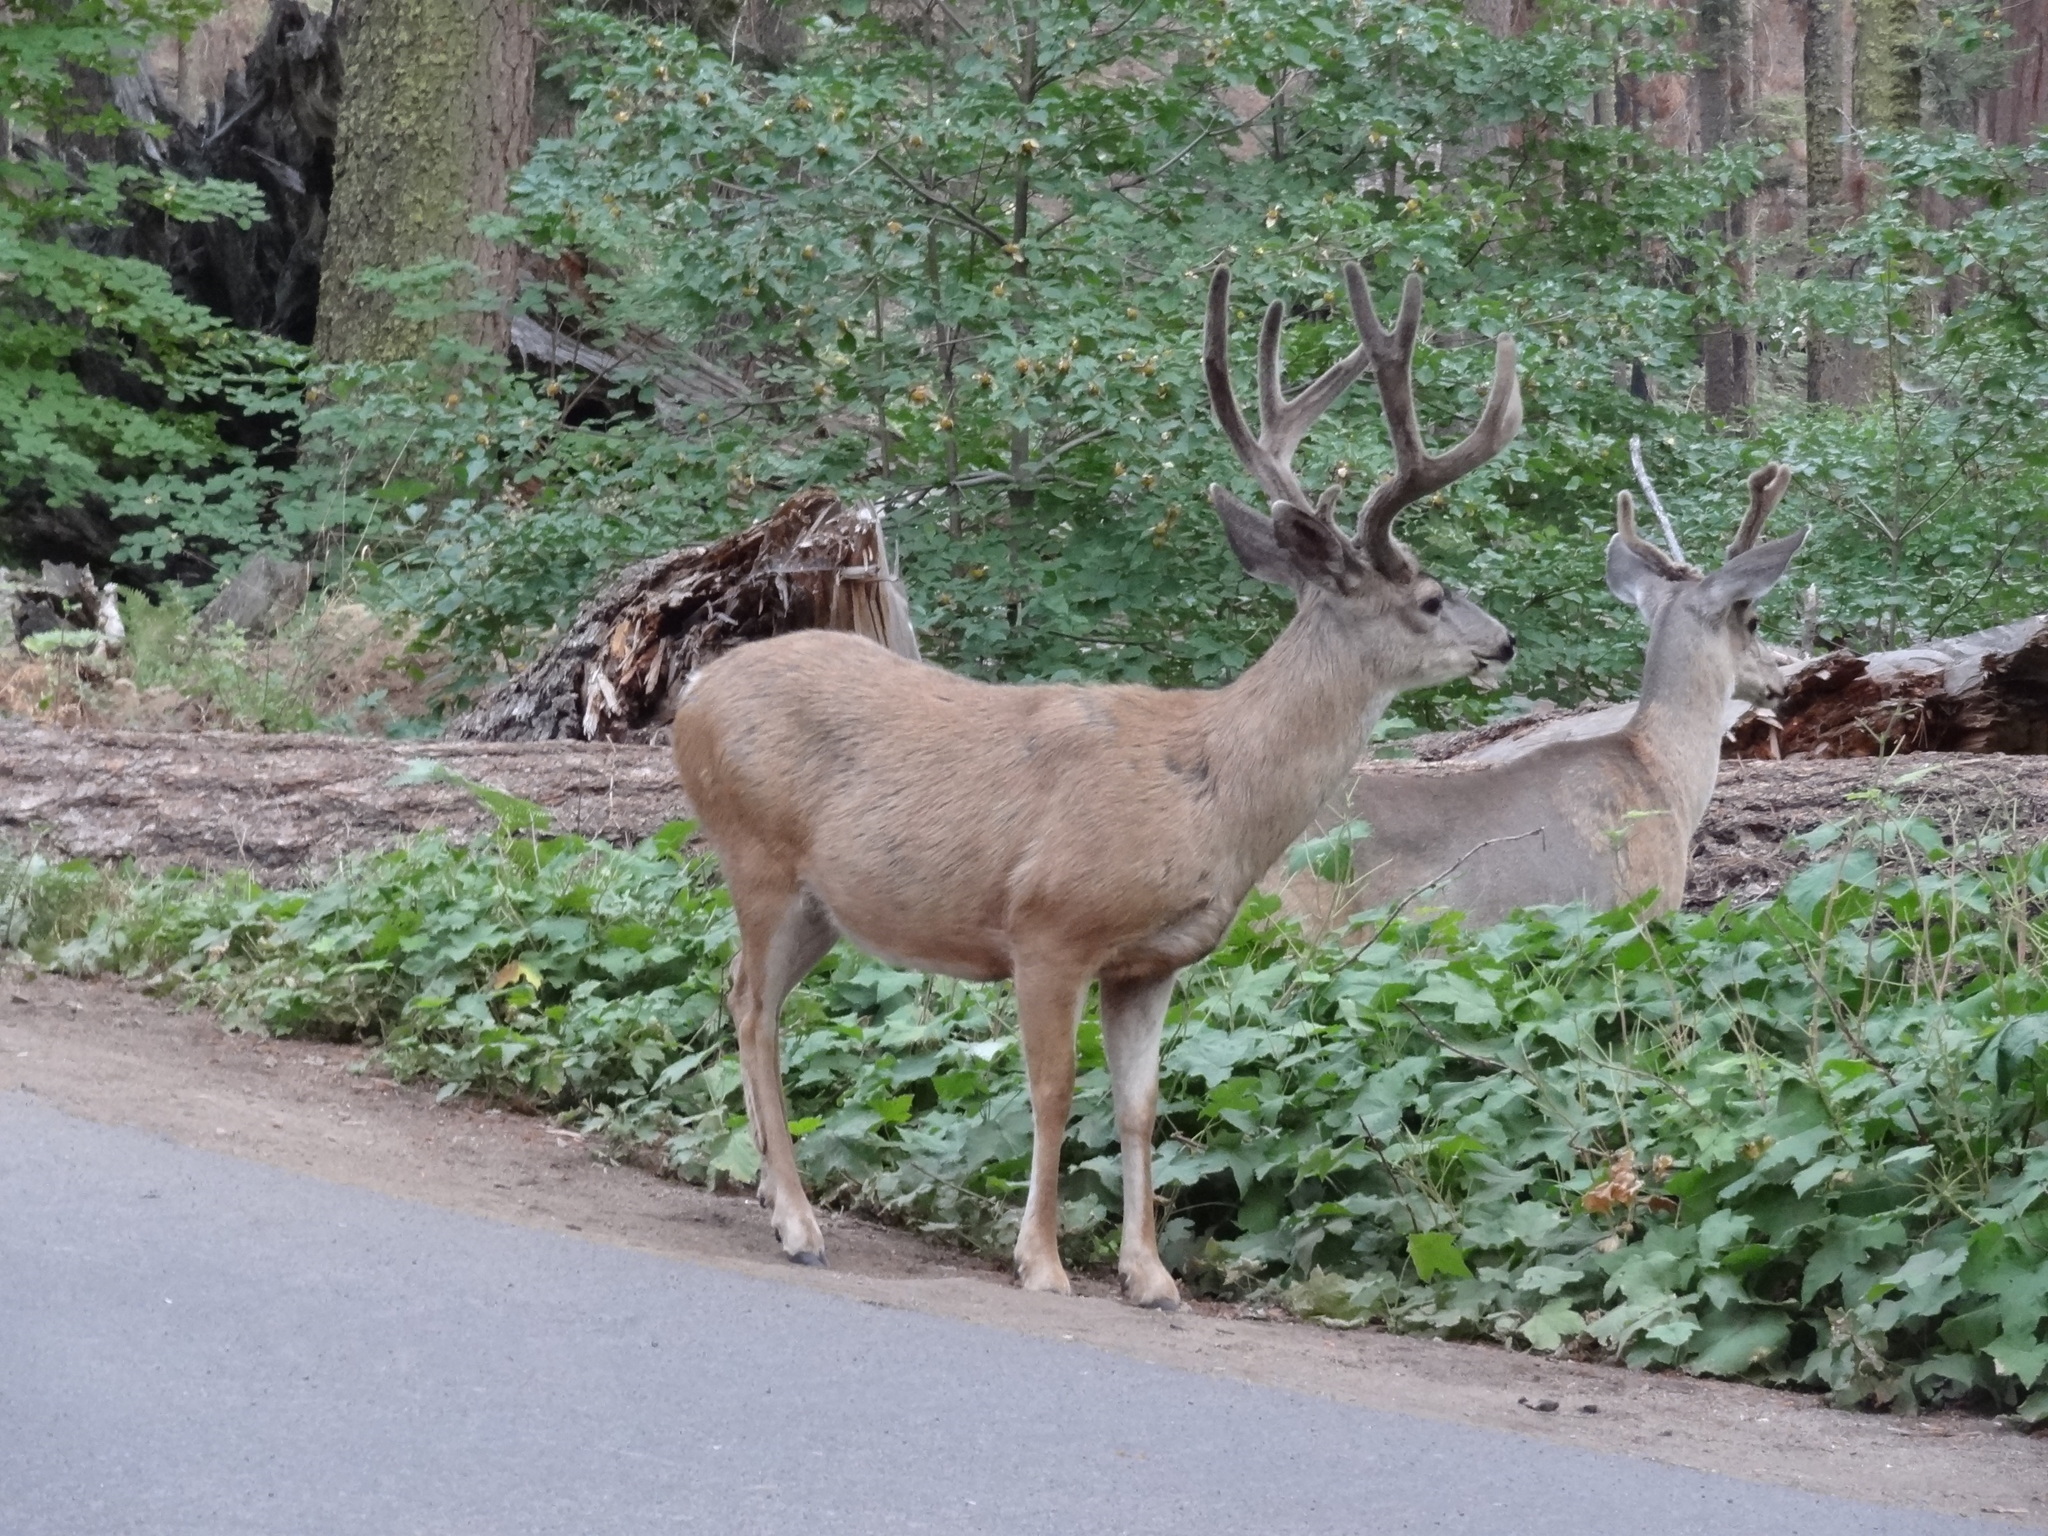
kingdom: Animalia
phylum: Chordata
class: Mammalia
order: Artiodactyla
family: Cervidae
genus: Odocoileus
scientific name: Odocoileus hemionus
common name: Mule deer
